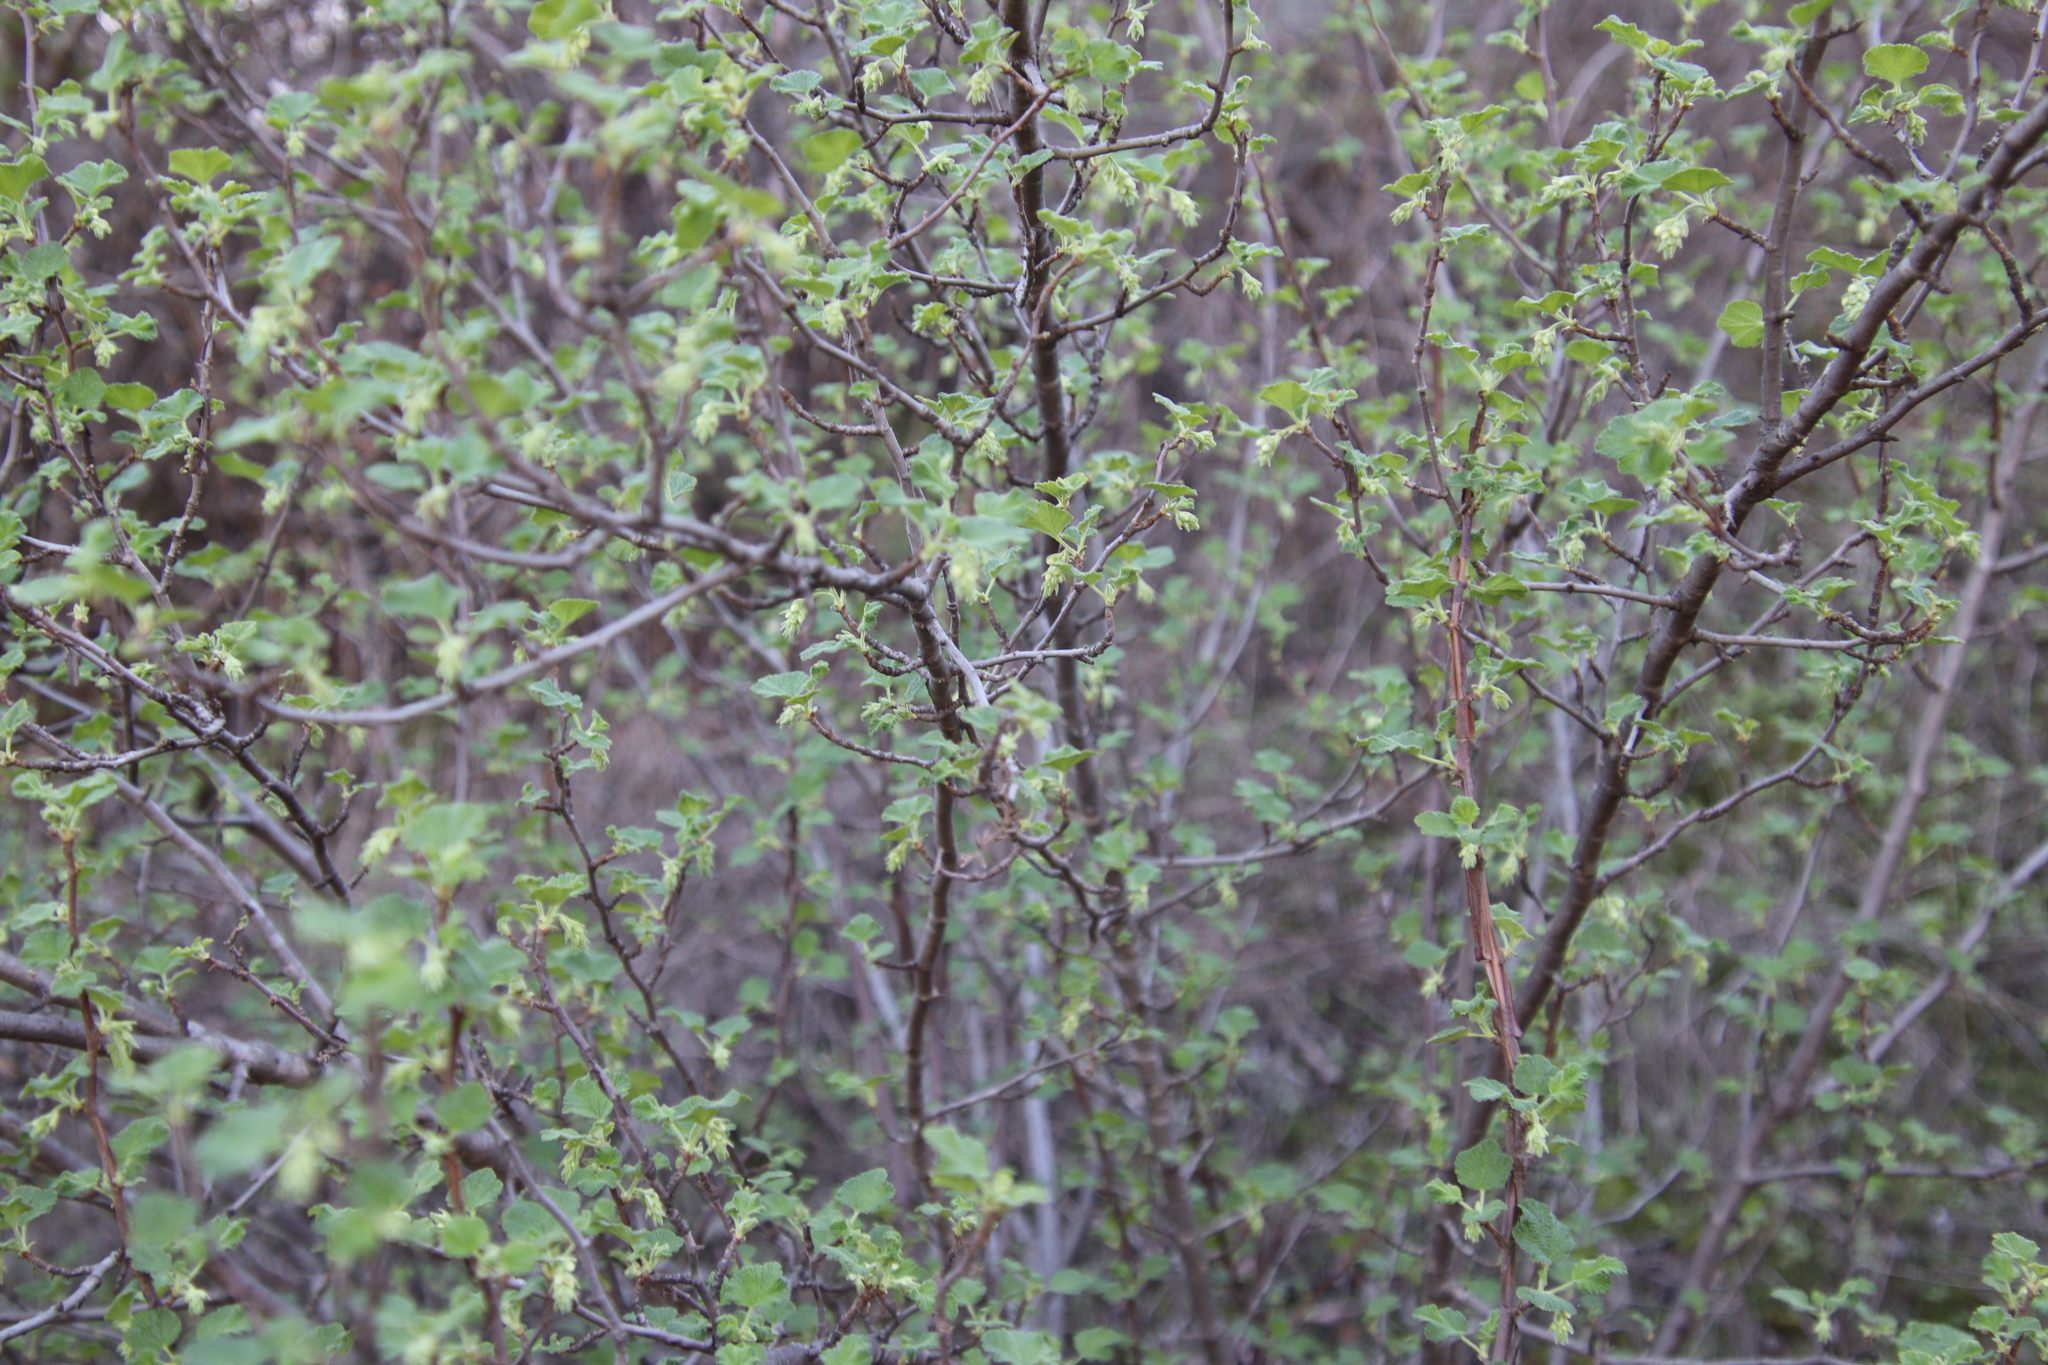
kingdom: Plantae
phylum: Tracheophyta
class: Magnoliopsida
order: Saxifragales
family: Grossulariaceae
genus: Ribes
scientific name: Ribes indecorum
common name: White-flower currant
